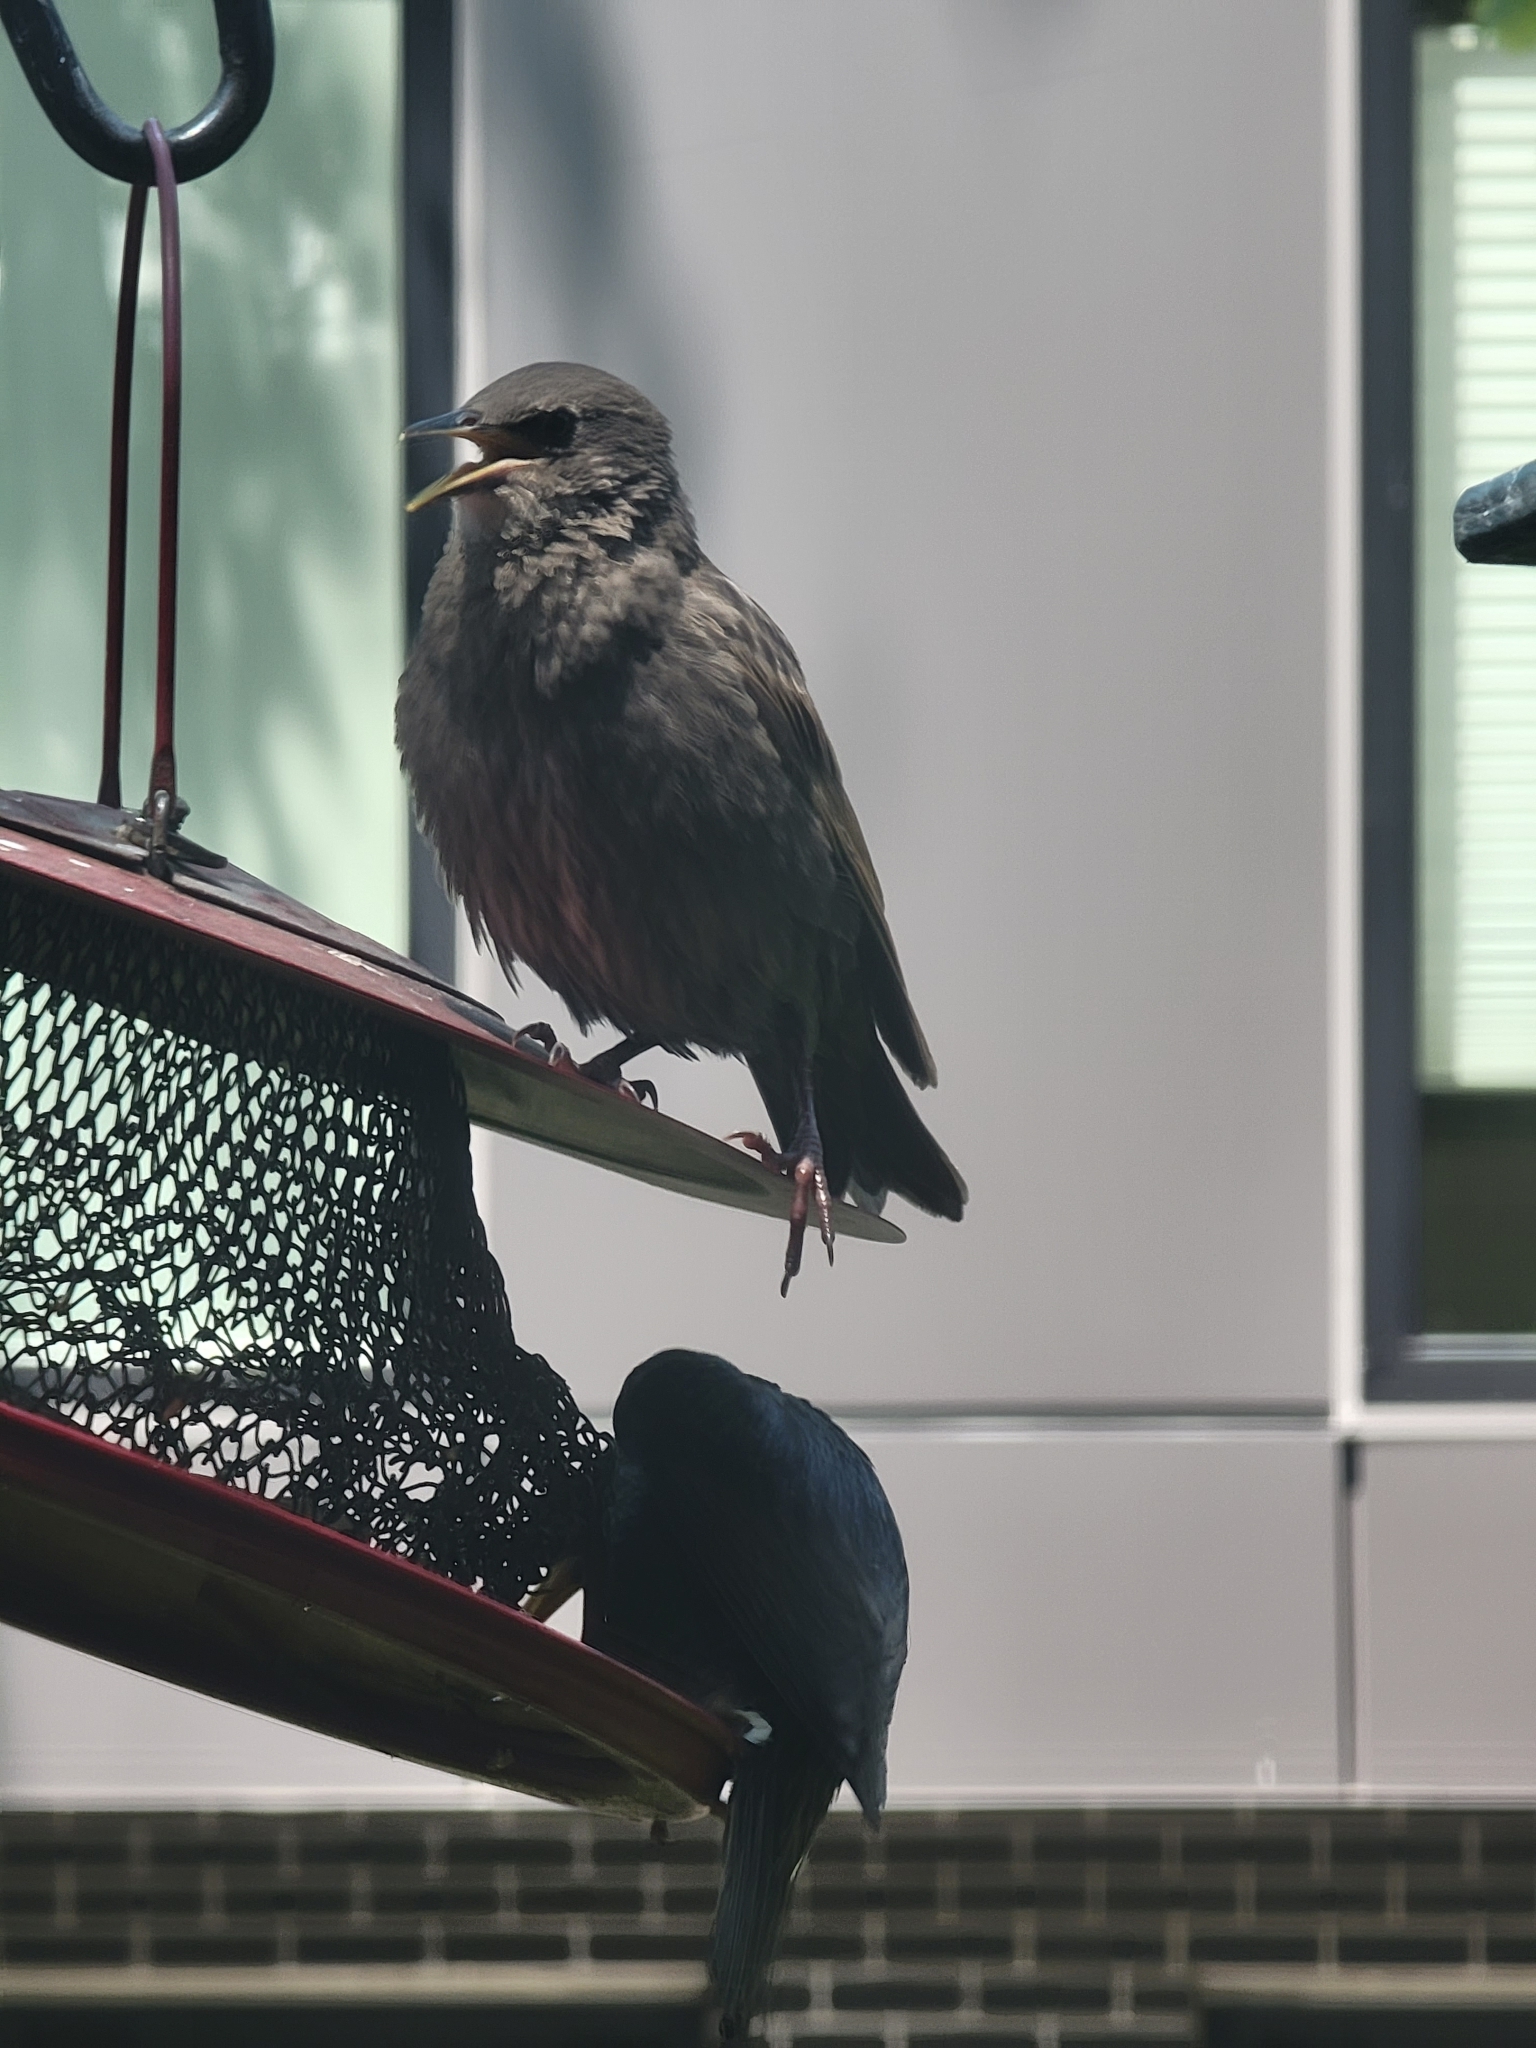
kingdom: Animalia
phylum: Chordata
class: Aves
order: Passeriformes
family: Sturnidae
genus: Sturnus
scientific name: Sturnus vulgaris
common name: Common starling
